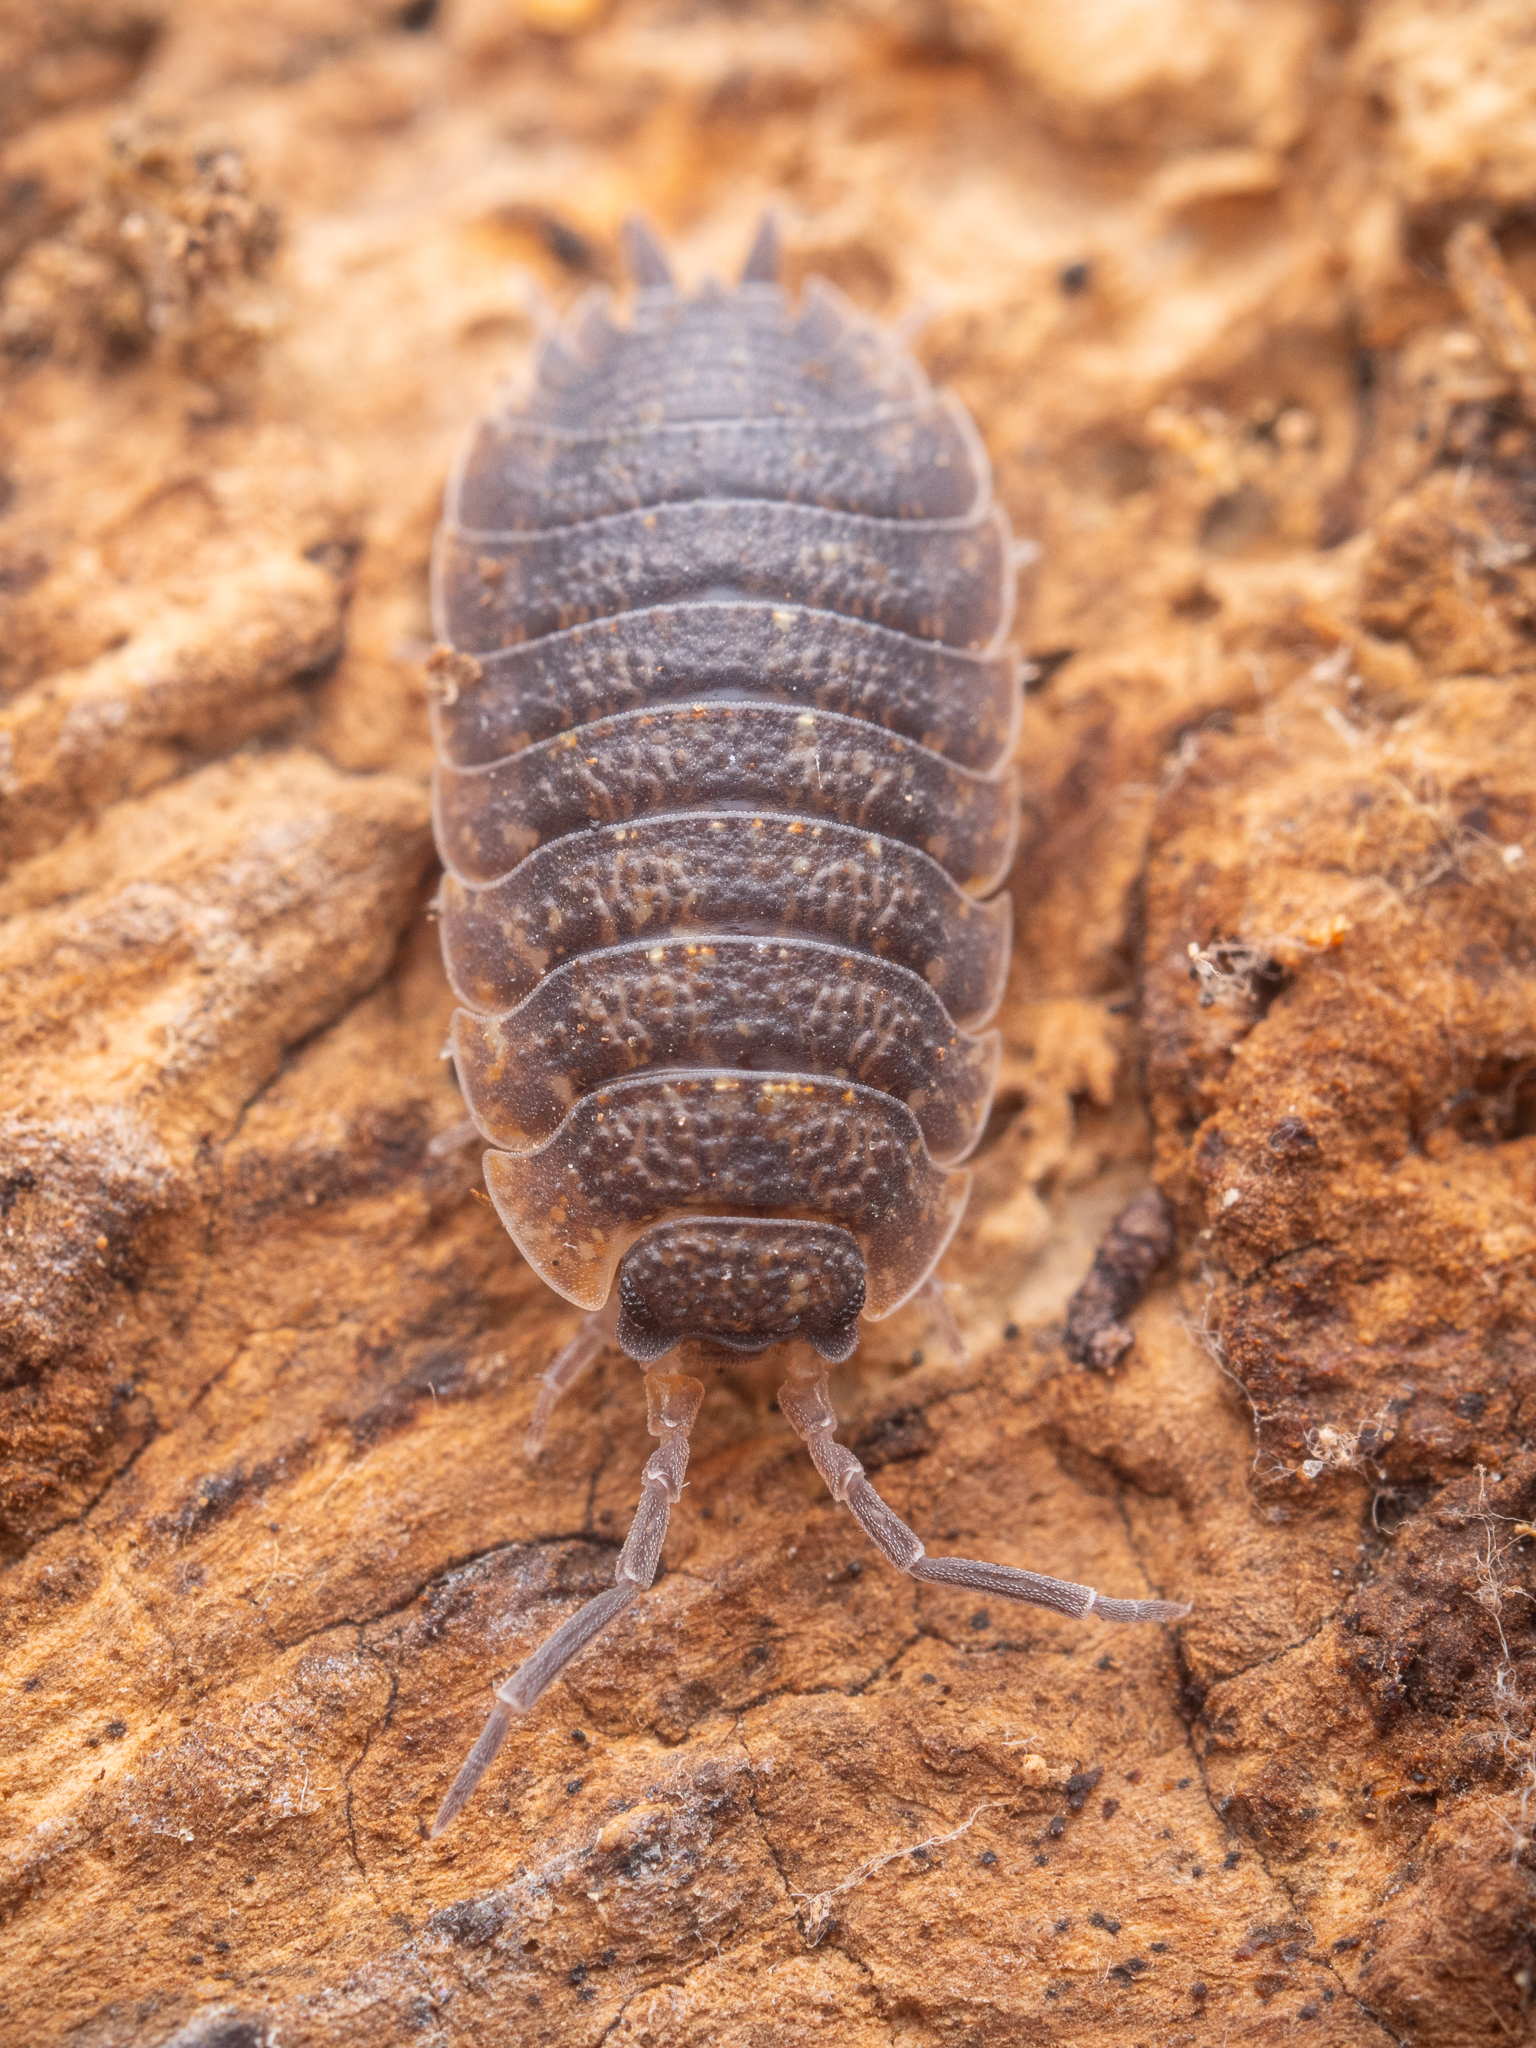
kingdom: Animalia
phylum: Arthropoda
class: Malacostraca
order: Isopoda
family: Porcellionidae
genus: Porcellio
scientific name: Porcellio scaber
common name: Common rough woodlouse
